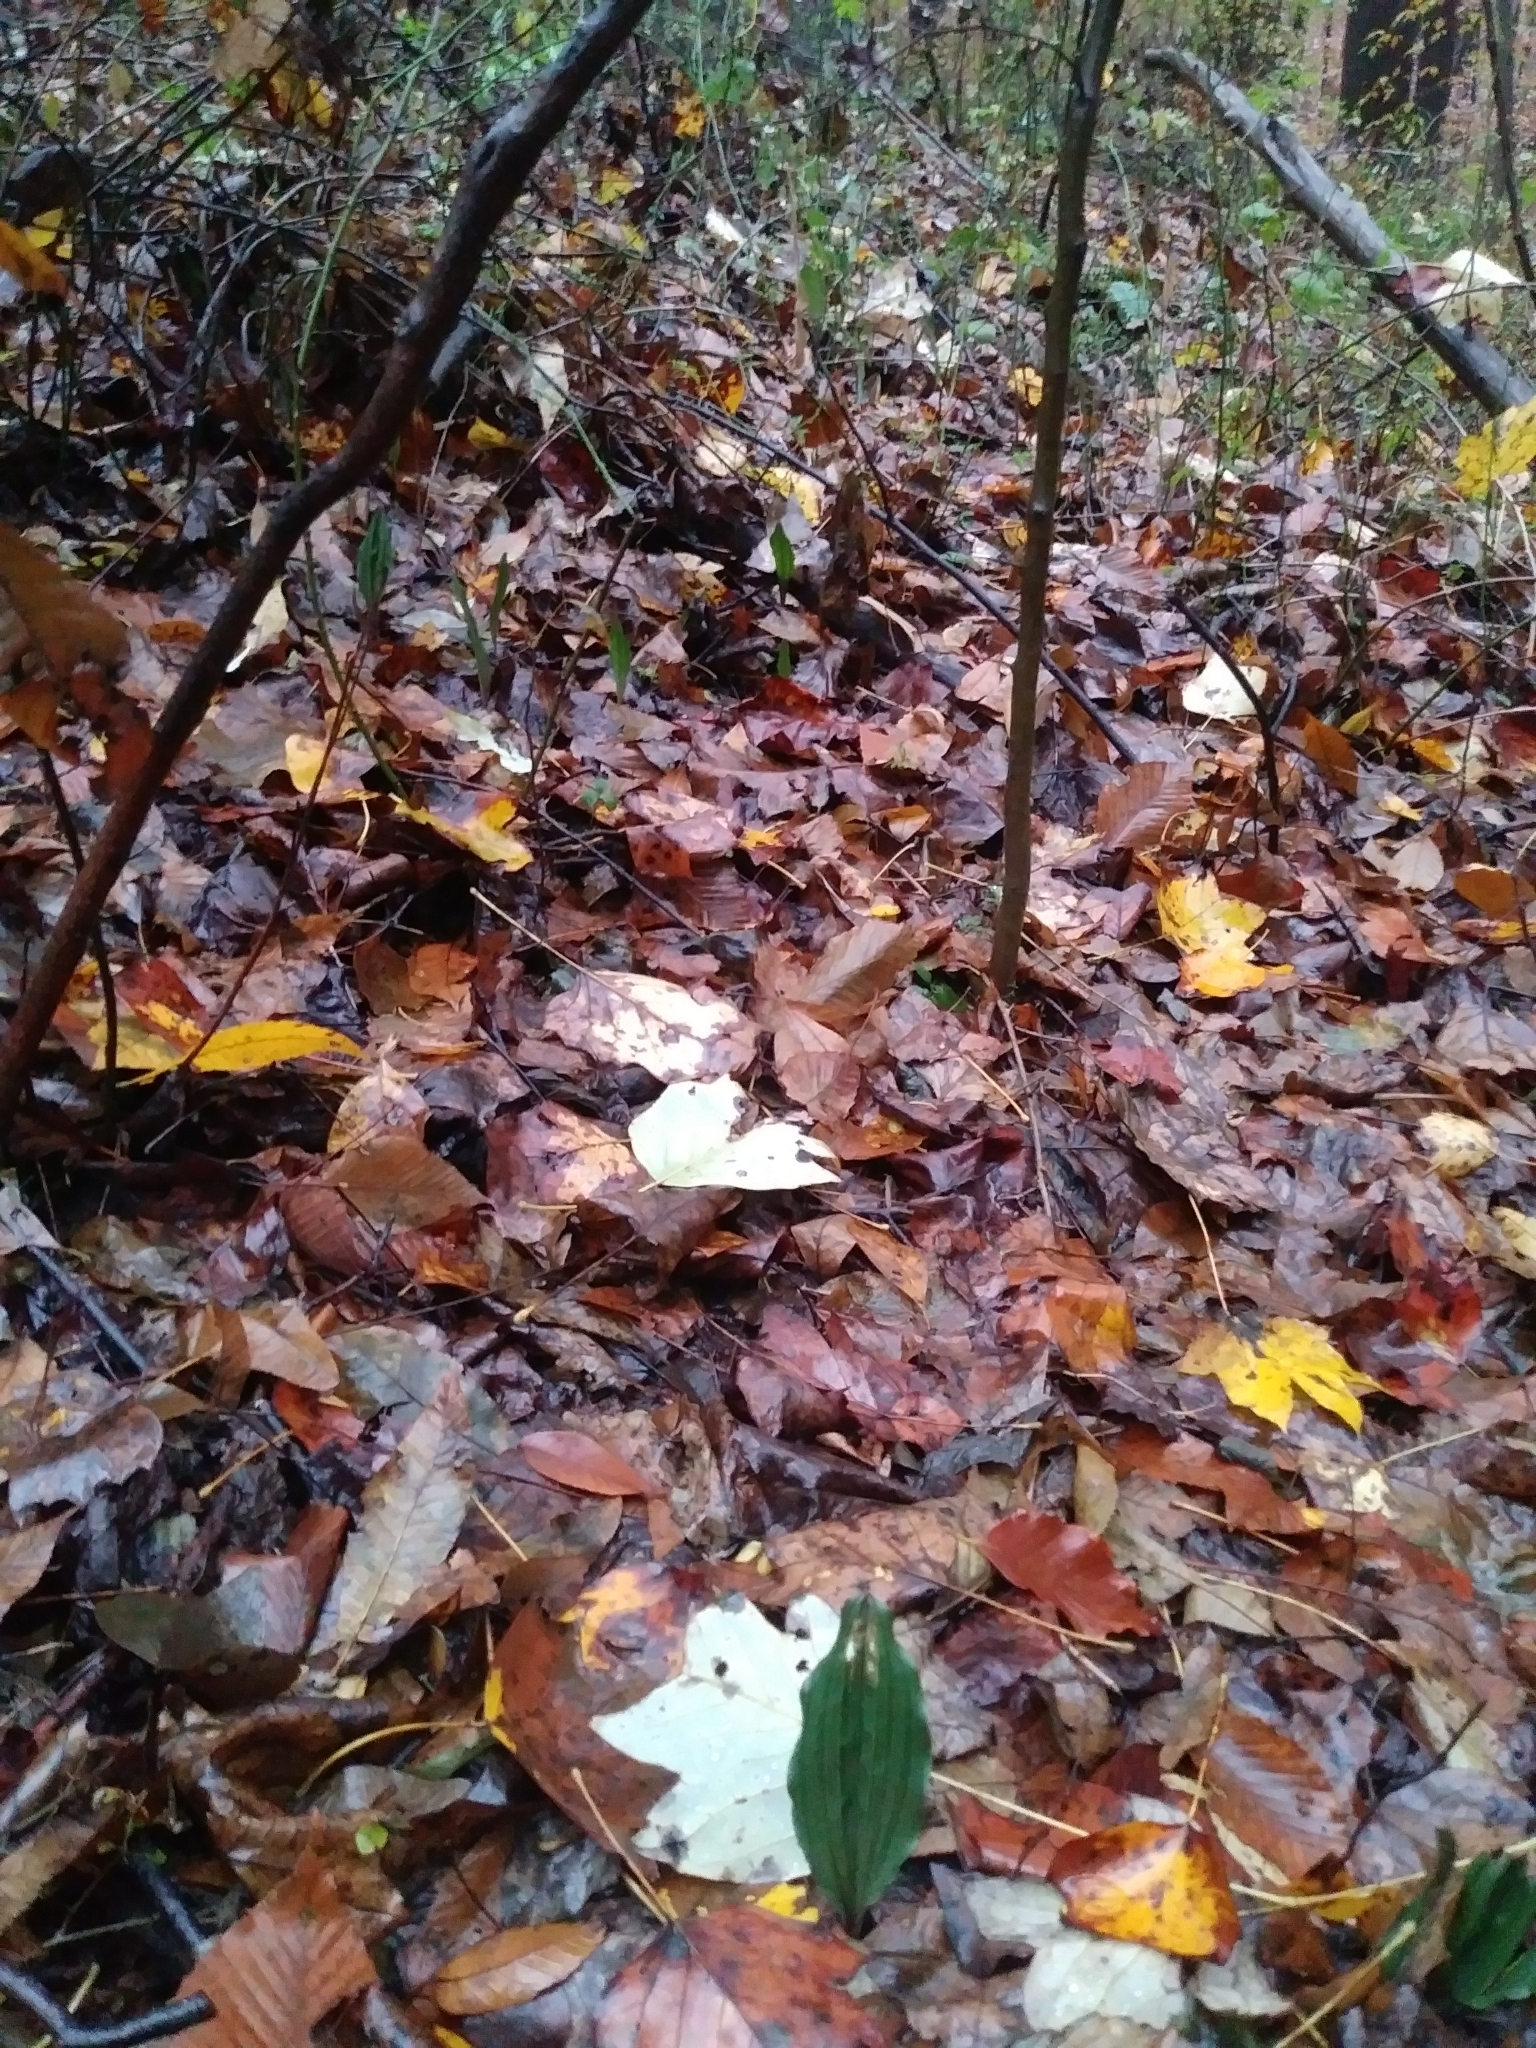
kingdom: Plantae
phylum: Tracheophyta
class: Liliopsida
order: Asparagales
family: Orchidaceae
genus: Aplectrum
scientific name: Aplectrum hyemale
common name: Adam-and-eve
